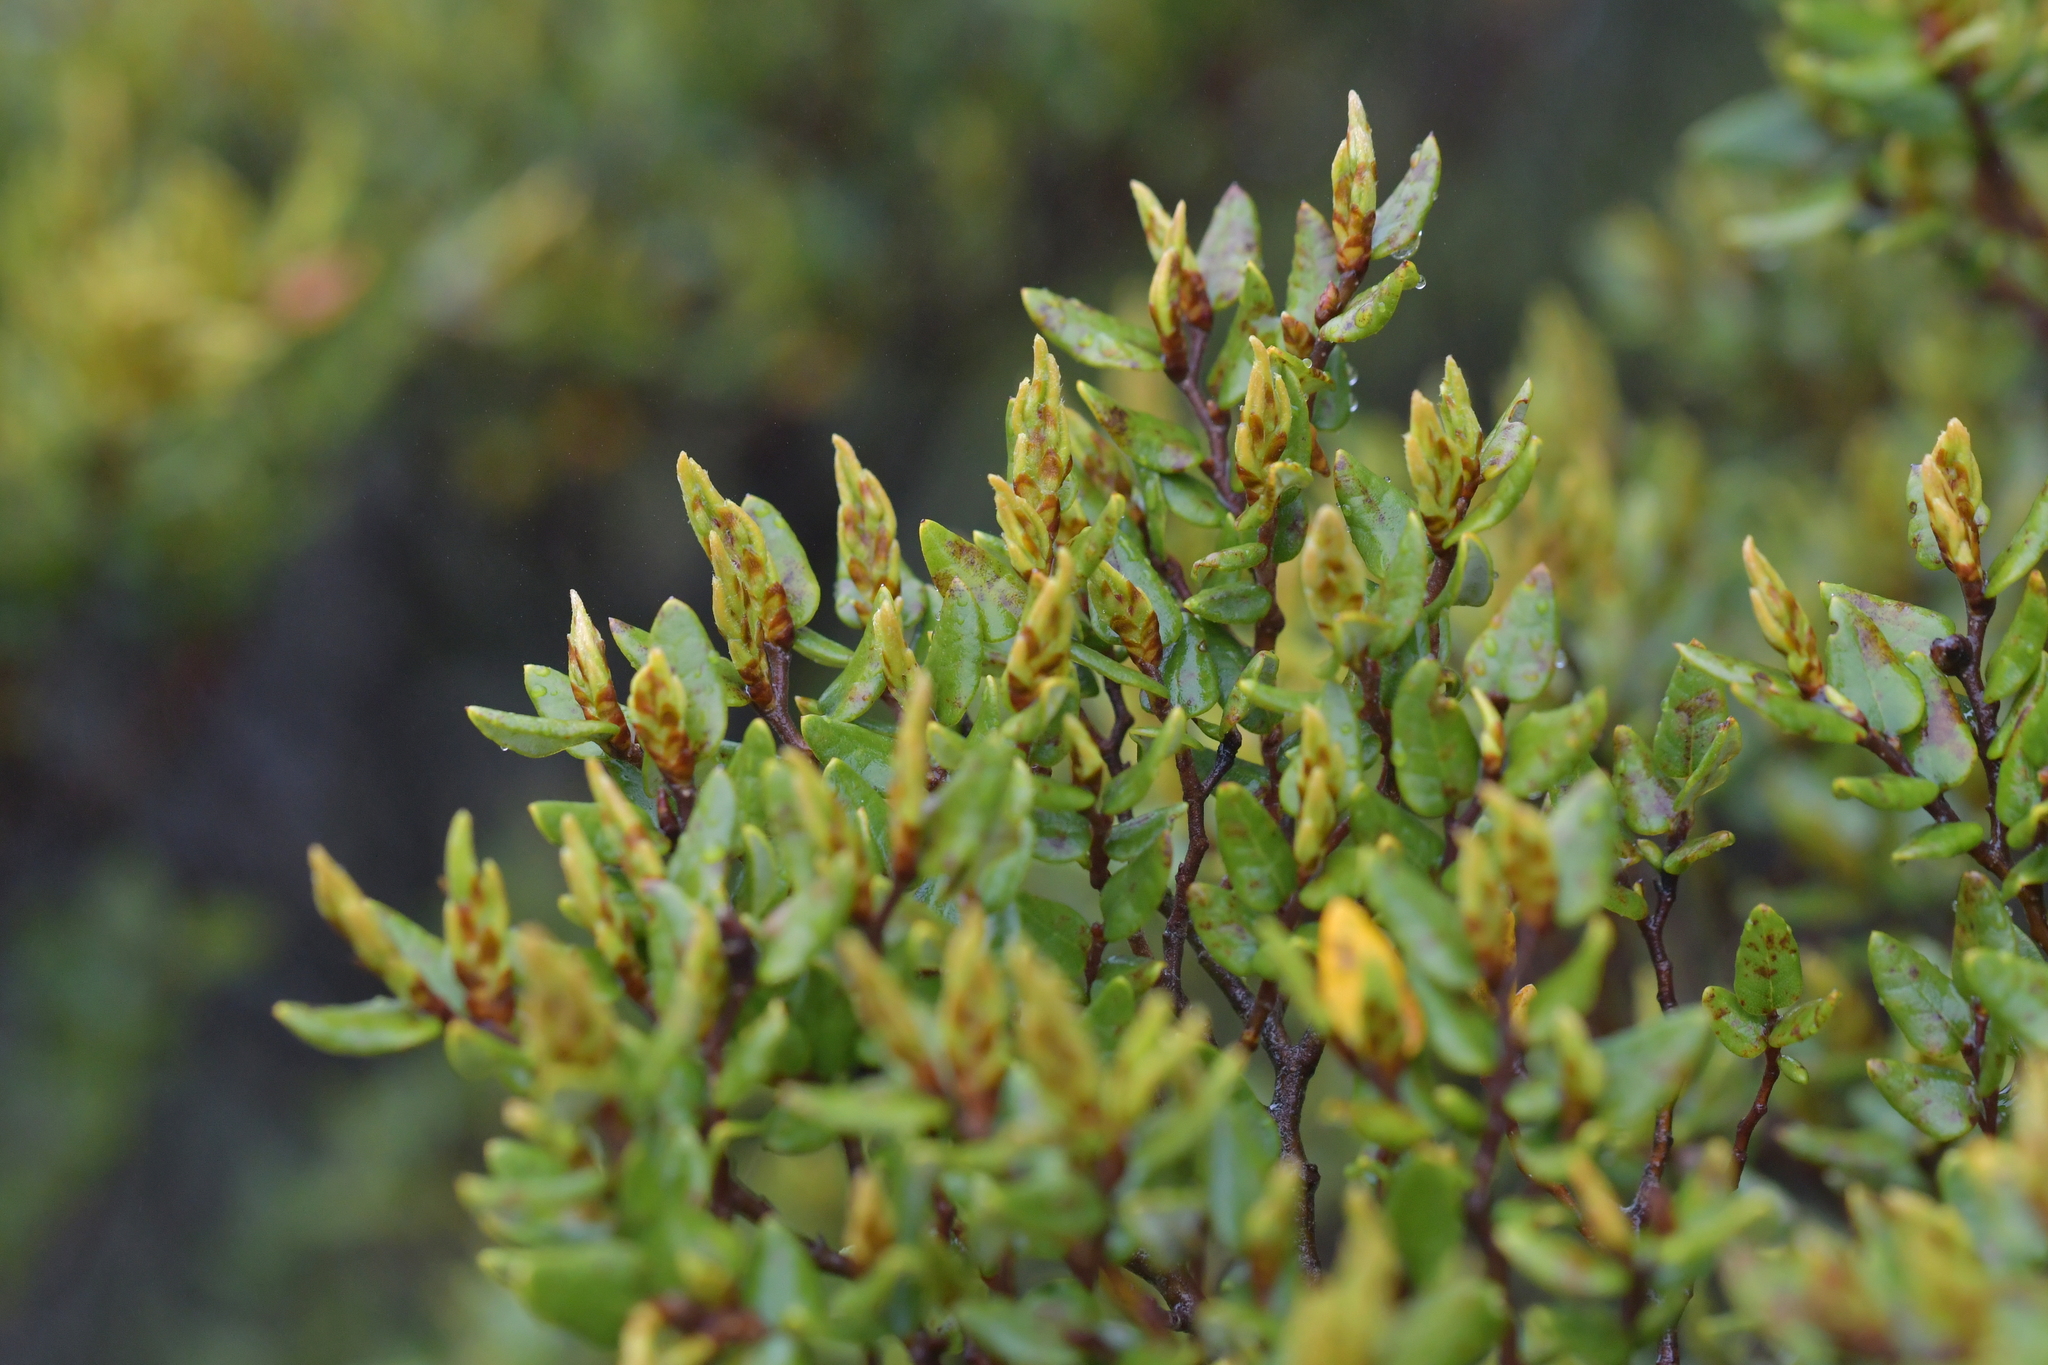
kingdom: Plantae
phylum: Tracheophyta
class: Magnoliopsida
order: Fagales
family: Nothofagaceae
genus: Nothofagus
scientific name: Nothofagus cliffortioides
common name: Mountain beech
